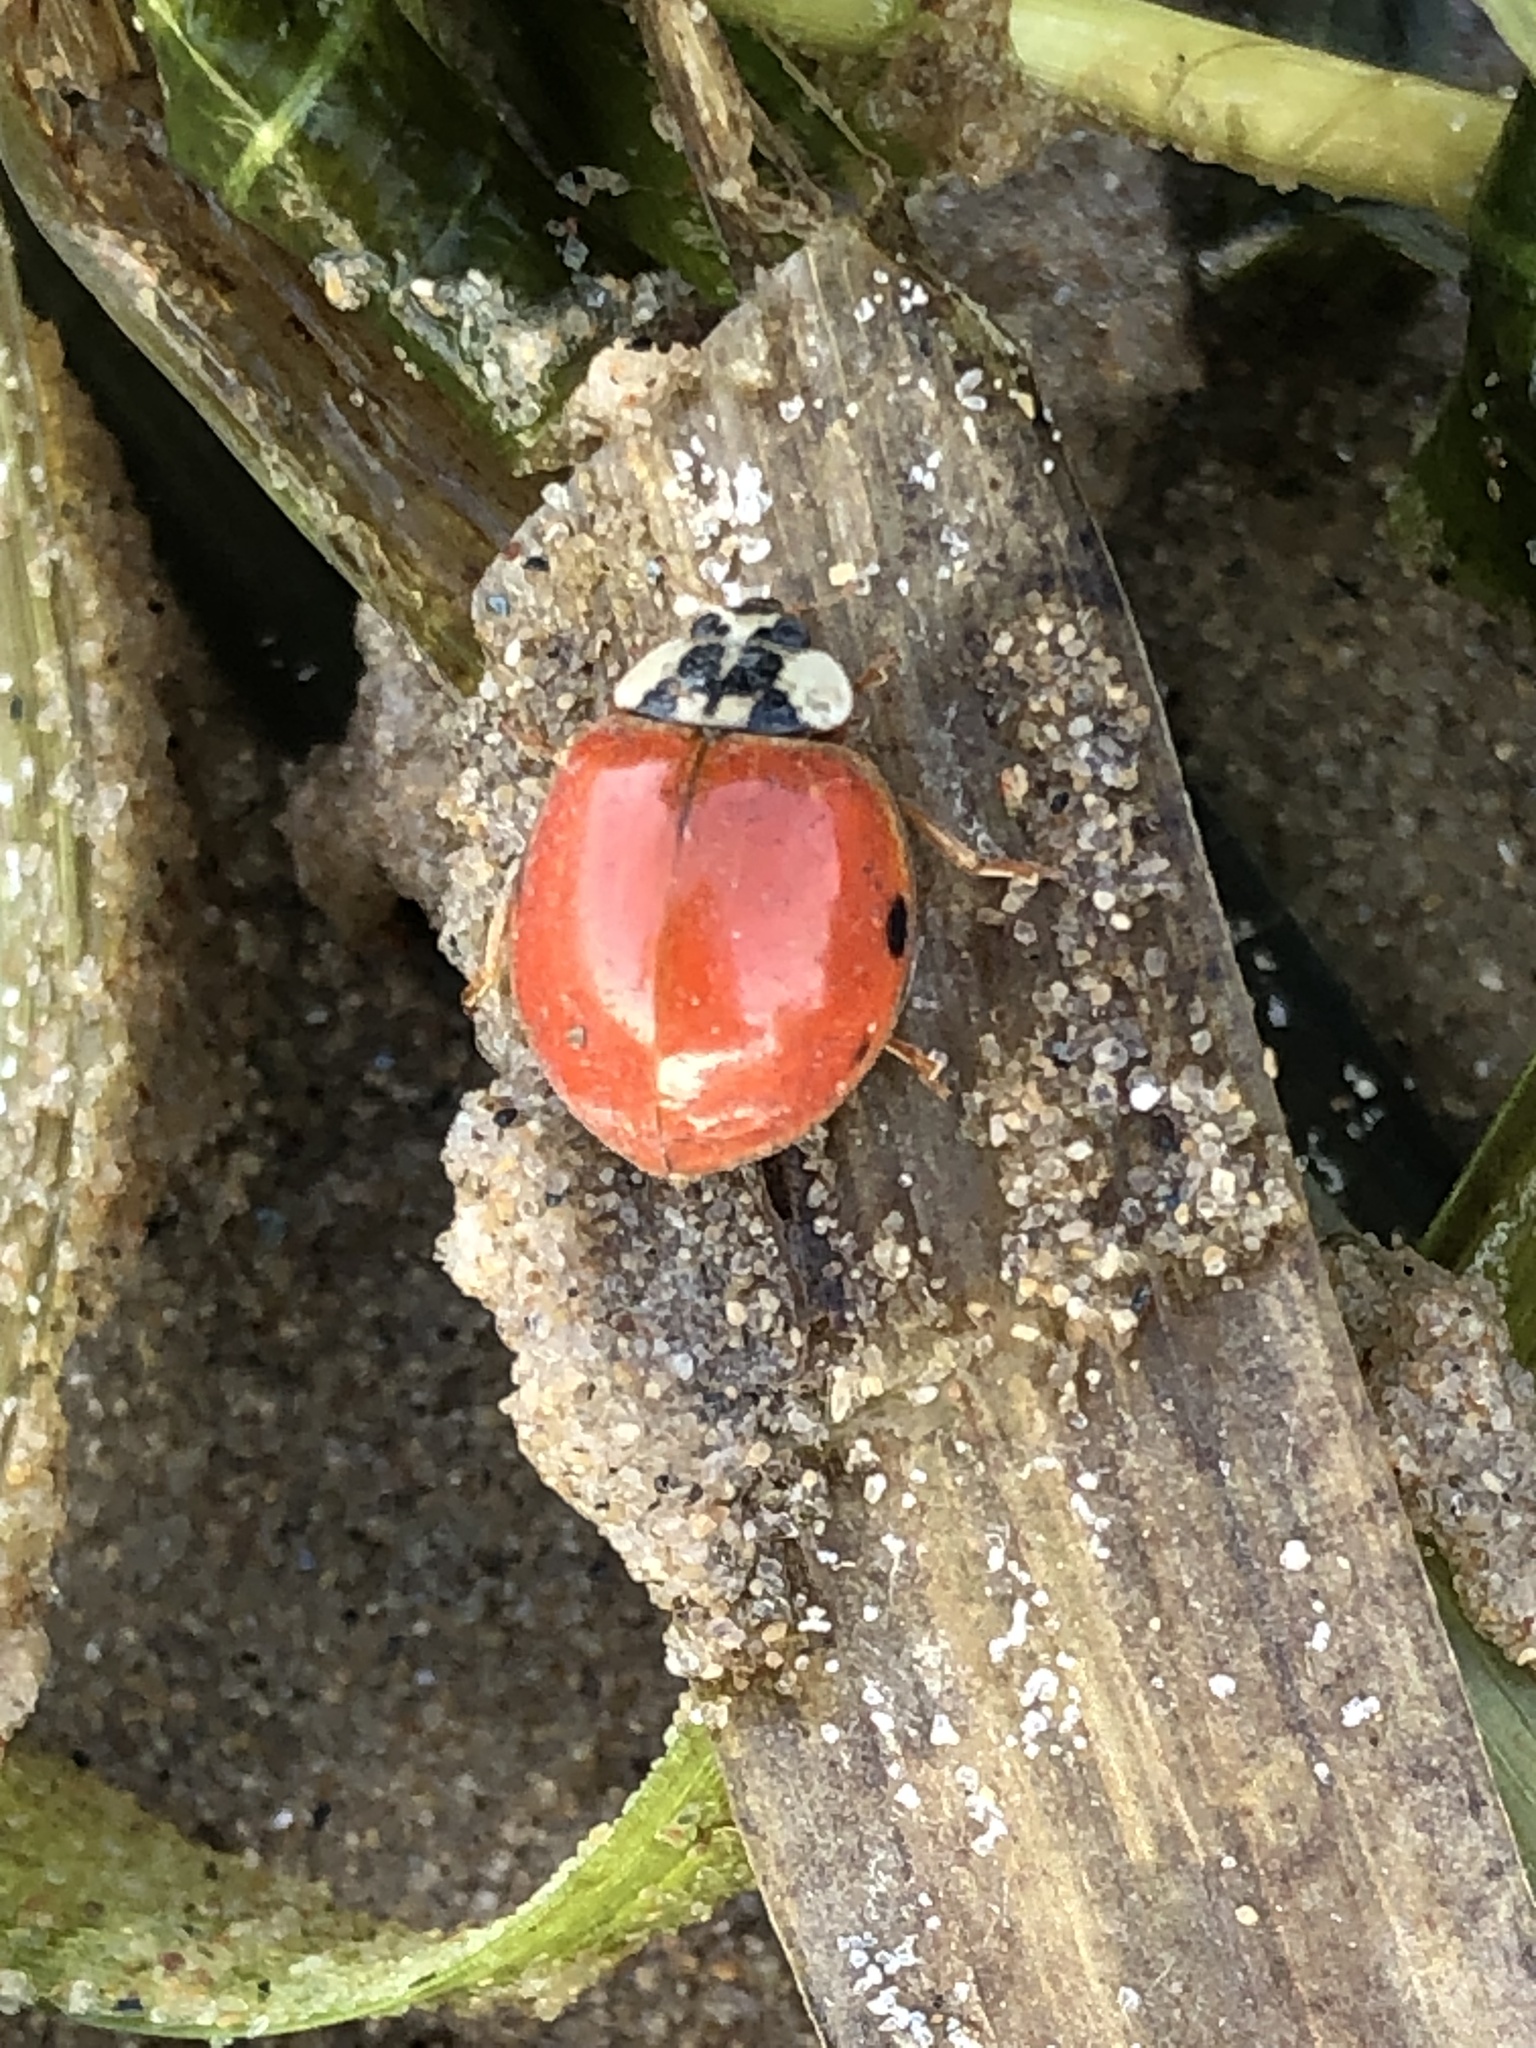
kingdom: Animalia
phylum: Arthropoda
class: Insecta
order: Coleoptera
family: Coccinellidae
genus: Harmonia
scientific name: Harmonia axyridis
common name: Harlequin ladybird
